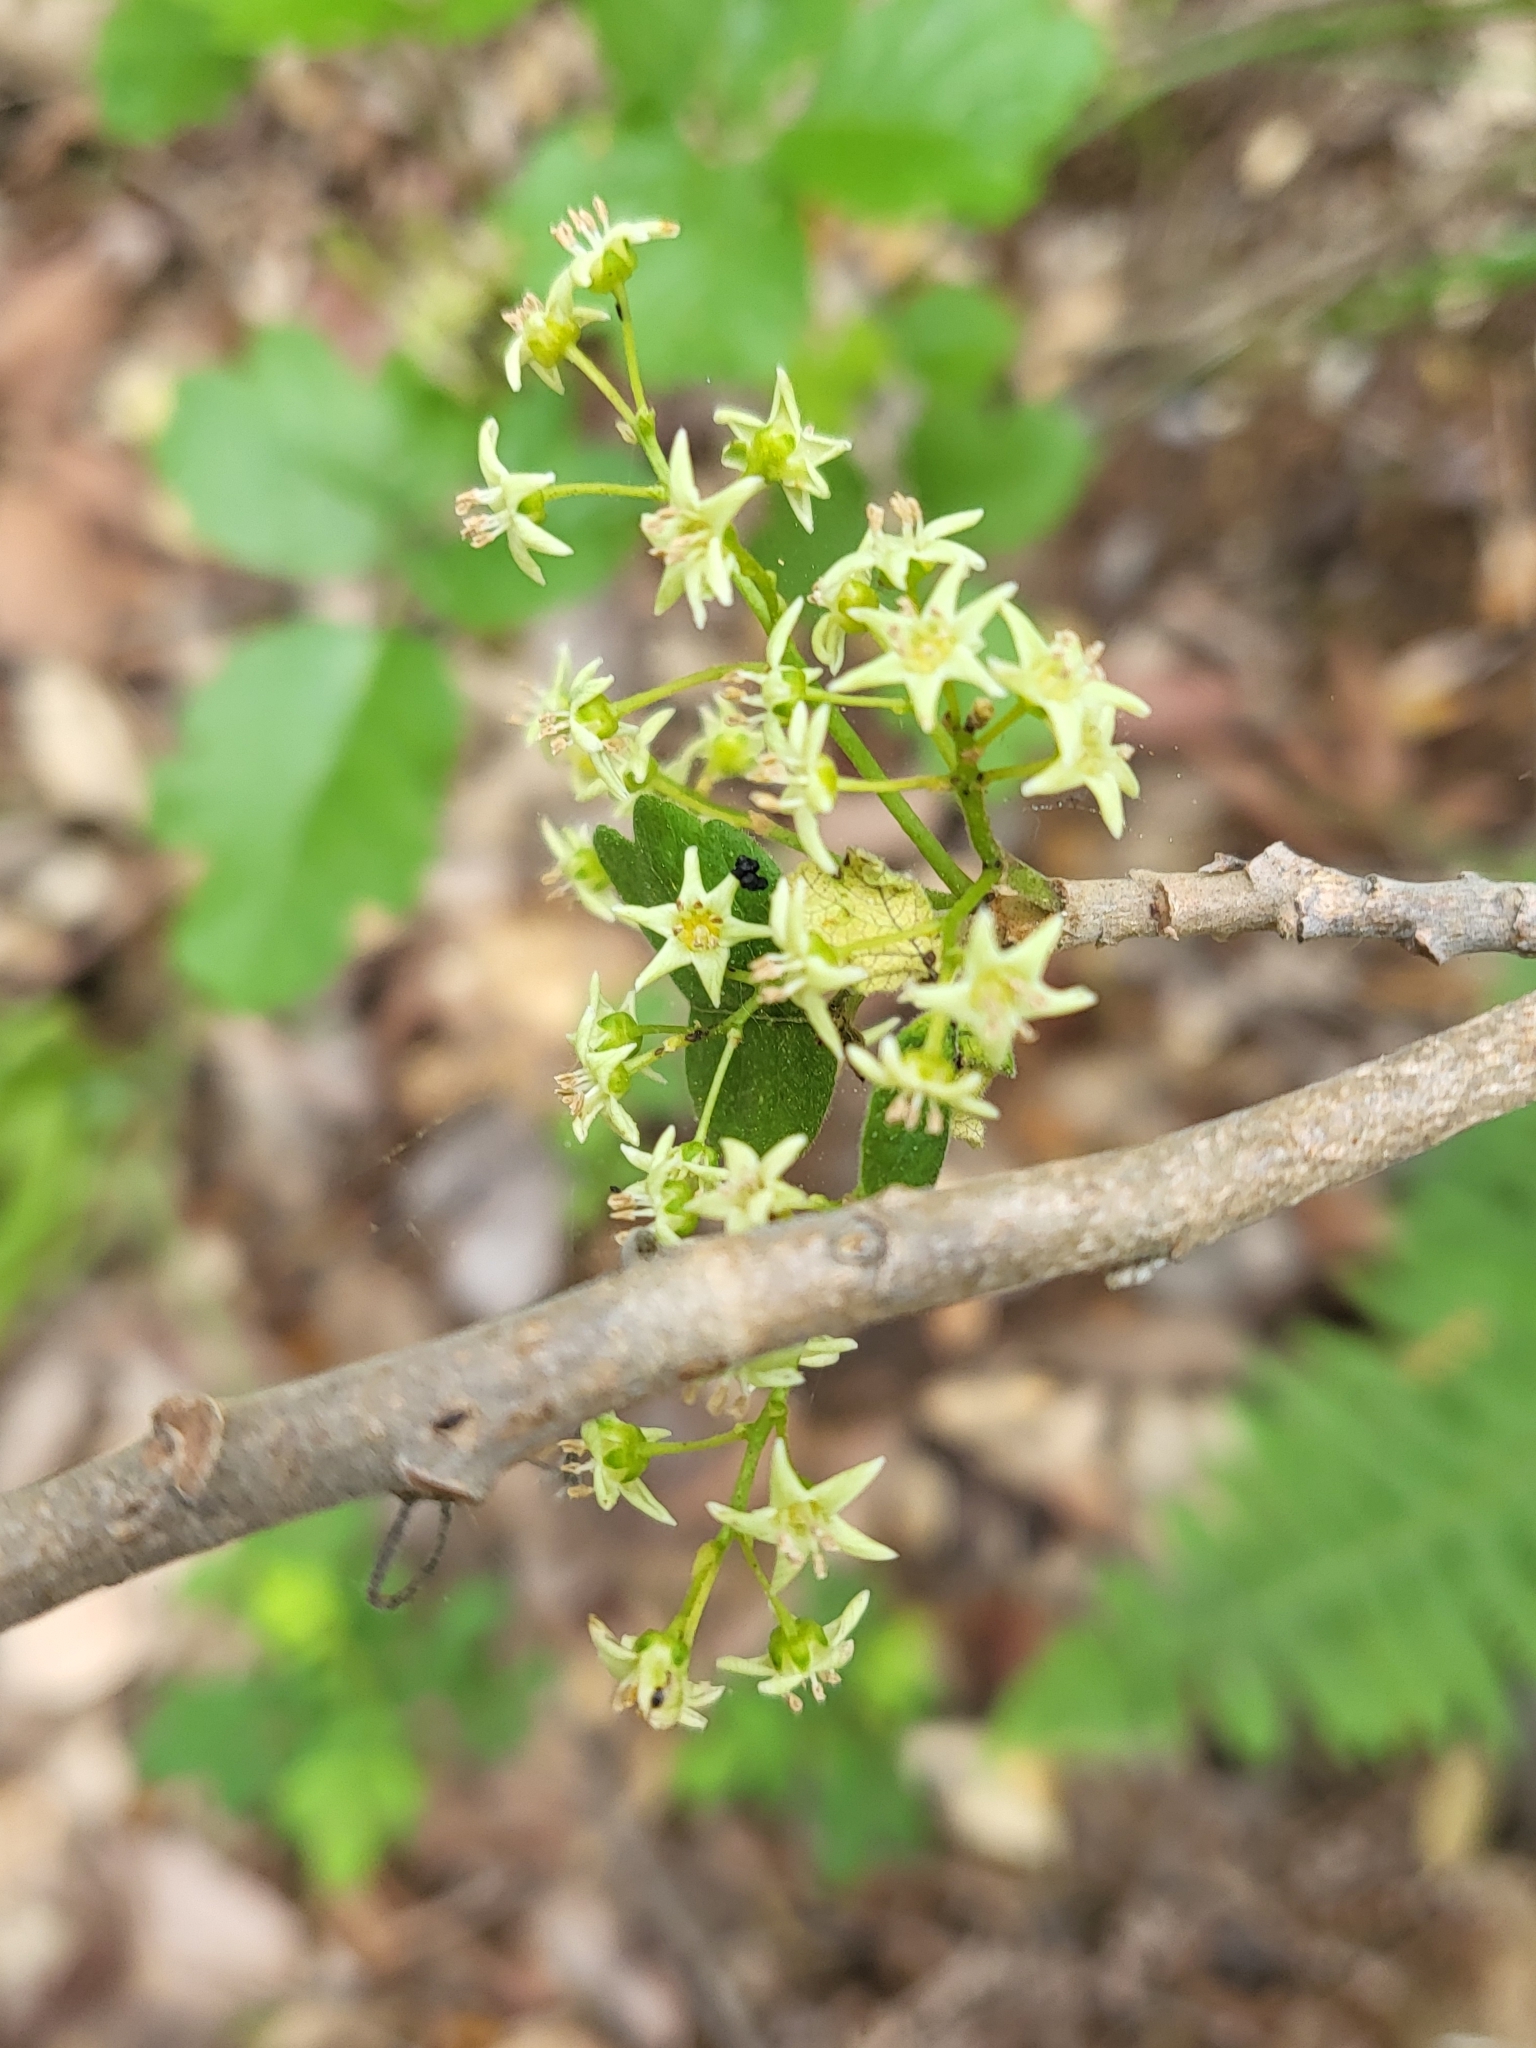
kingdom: Plantae
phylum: Tracheophyta
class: Magnoliopsida
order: Sapindales
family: Anacardiaceae
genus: Toxicodendron
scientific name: Toxicodendron diversilobum
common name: Pacific poison-oak
